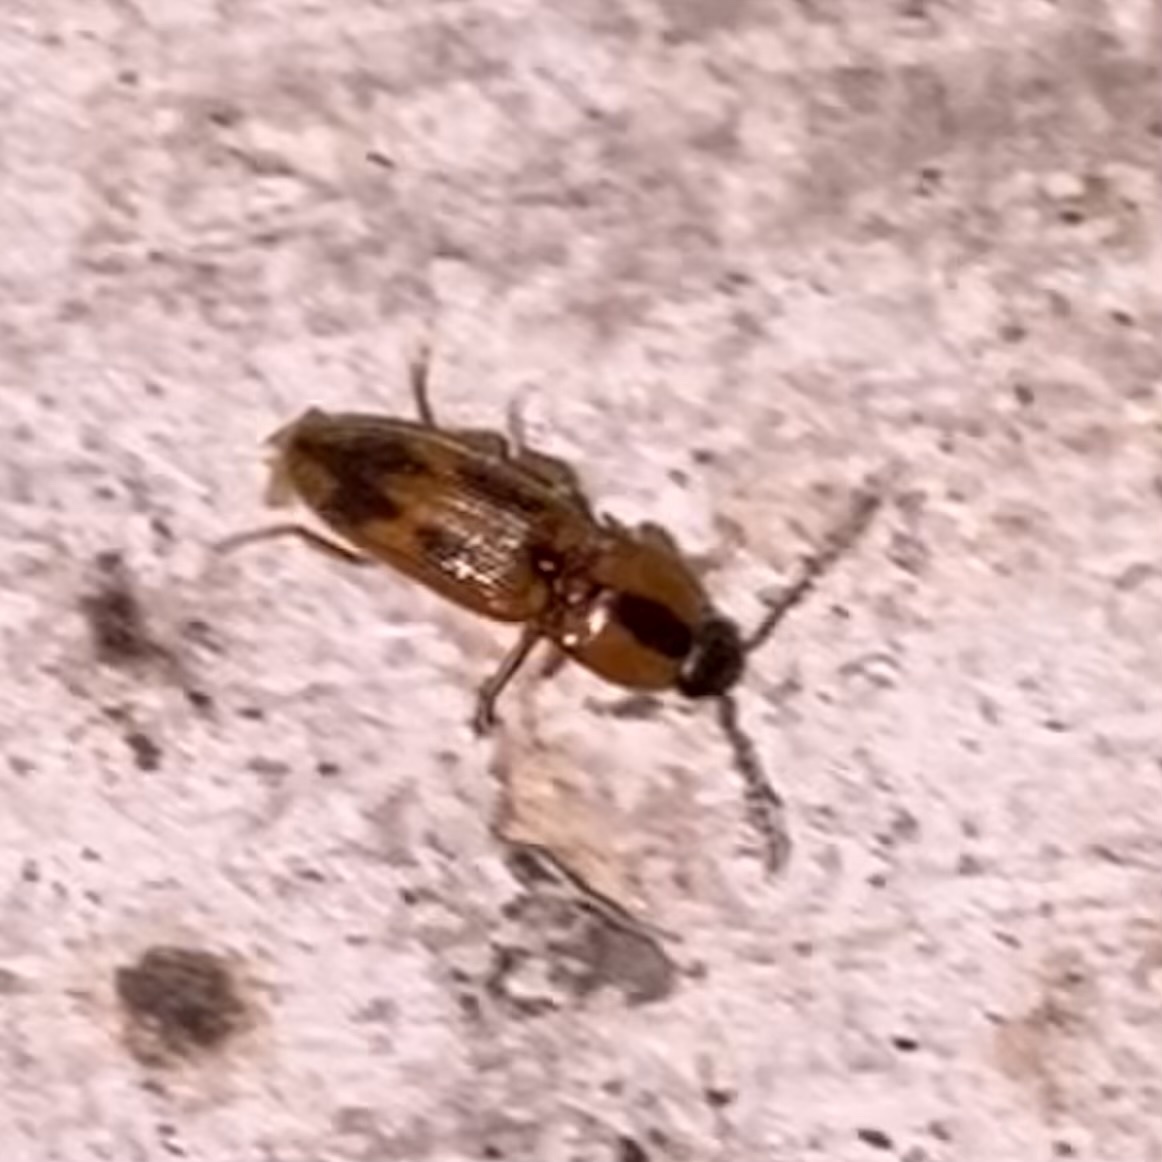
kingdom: Animalia
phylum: Arthropoda
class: Insecta
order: Coleoptera
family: Elateridae
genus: Aeolus
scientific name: Aeolus
